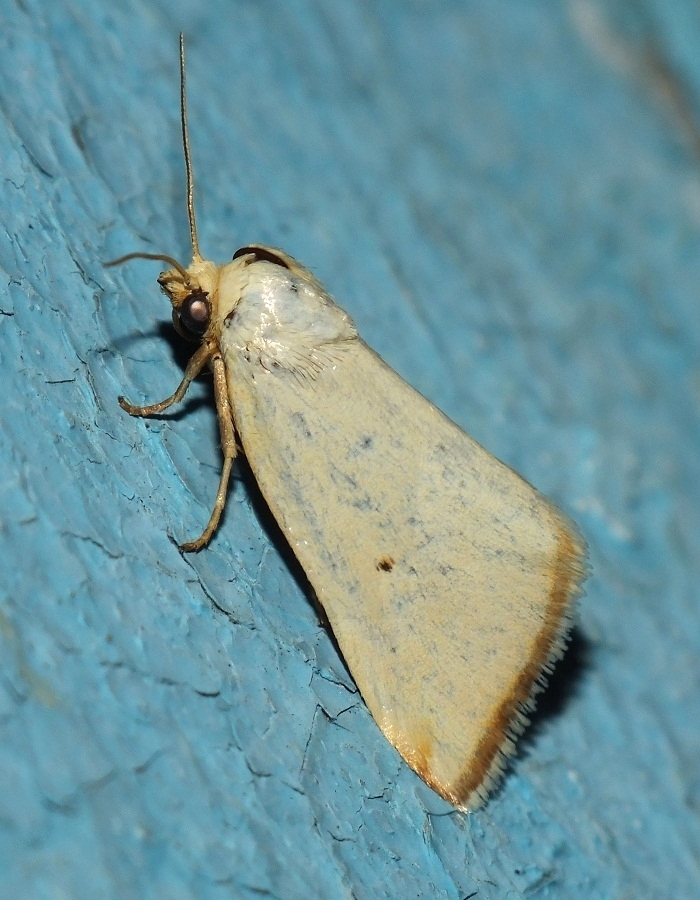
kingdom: Animalia
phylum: Arthropoda
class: Insecta
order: Lepidoptera
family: Noctuidae
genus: Aegle
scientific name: Aegle kaekeritziana
